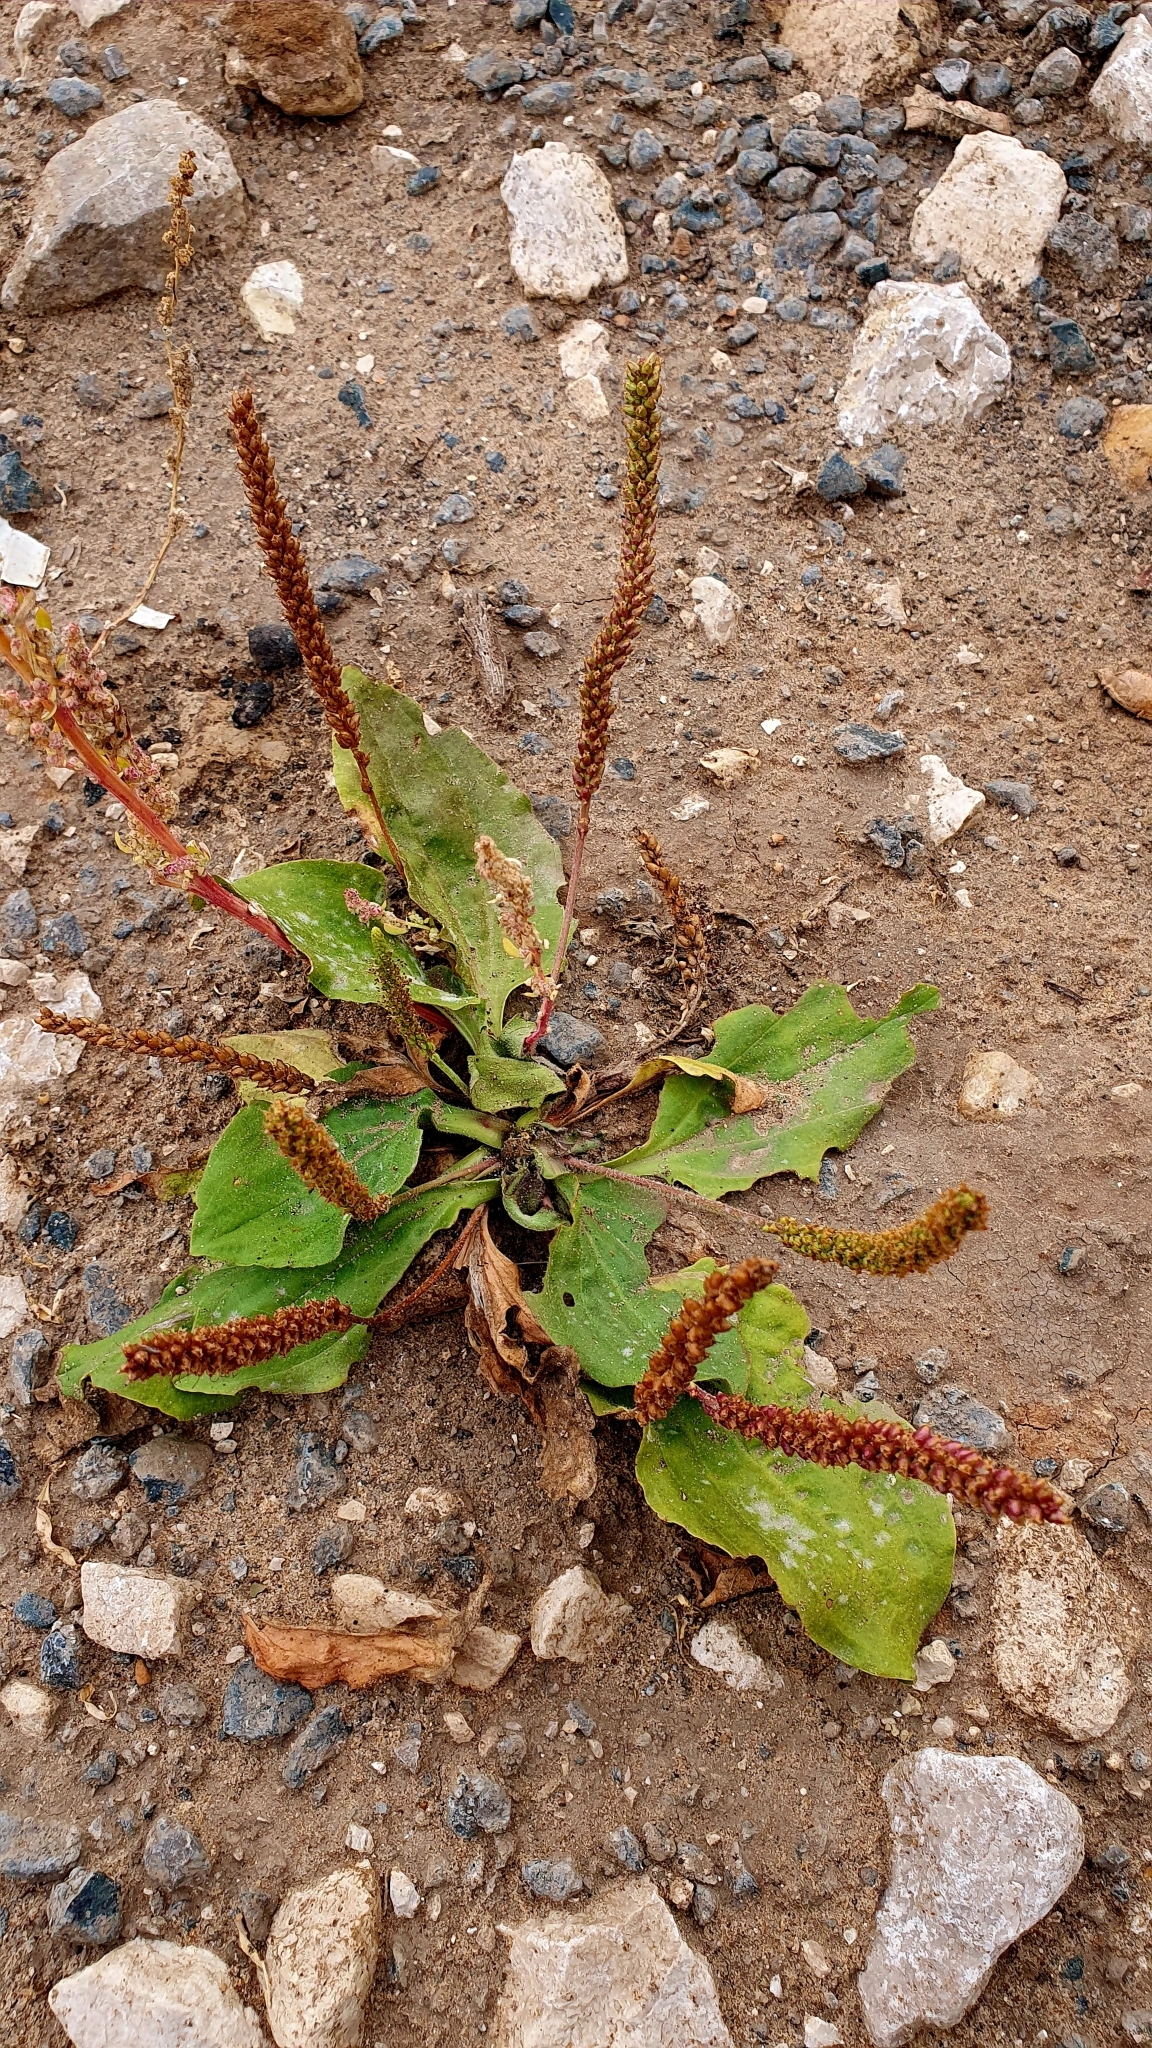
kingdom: Plantae
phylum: Tracheophyta
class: Magnoliopsida
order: Lamiales
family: Plantaginaceae
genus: Plantago
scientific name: Plantago major
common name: Common plantain
